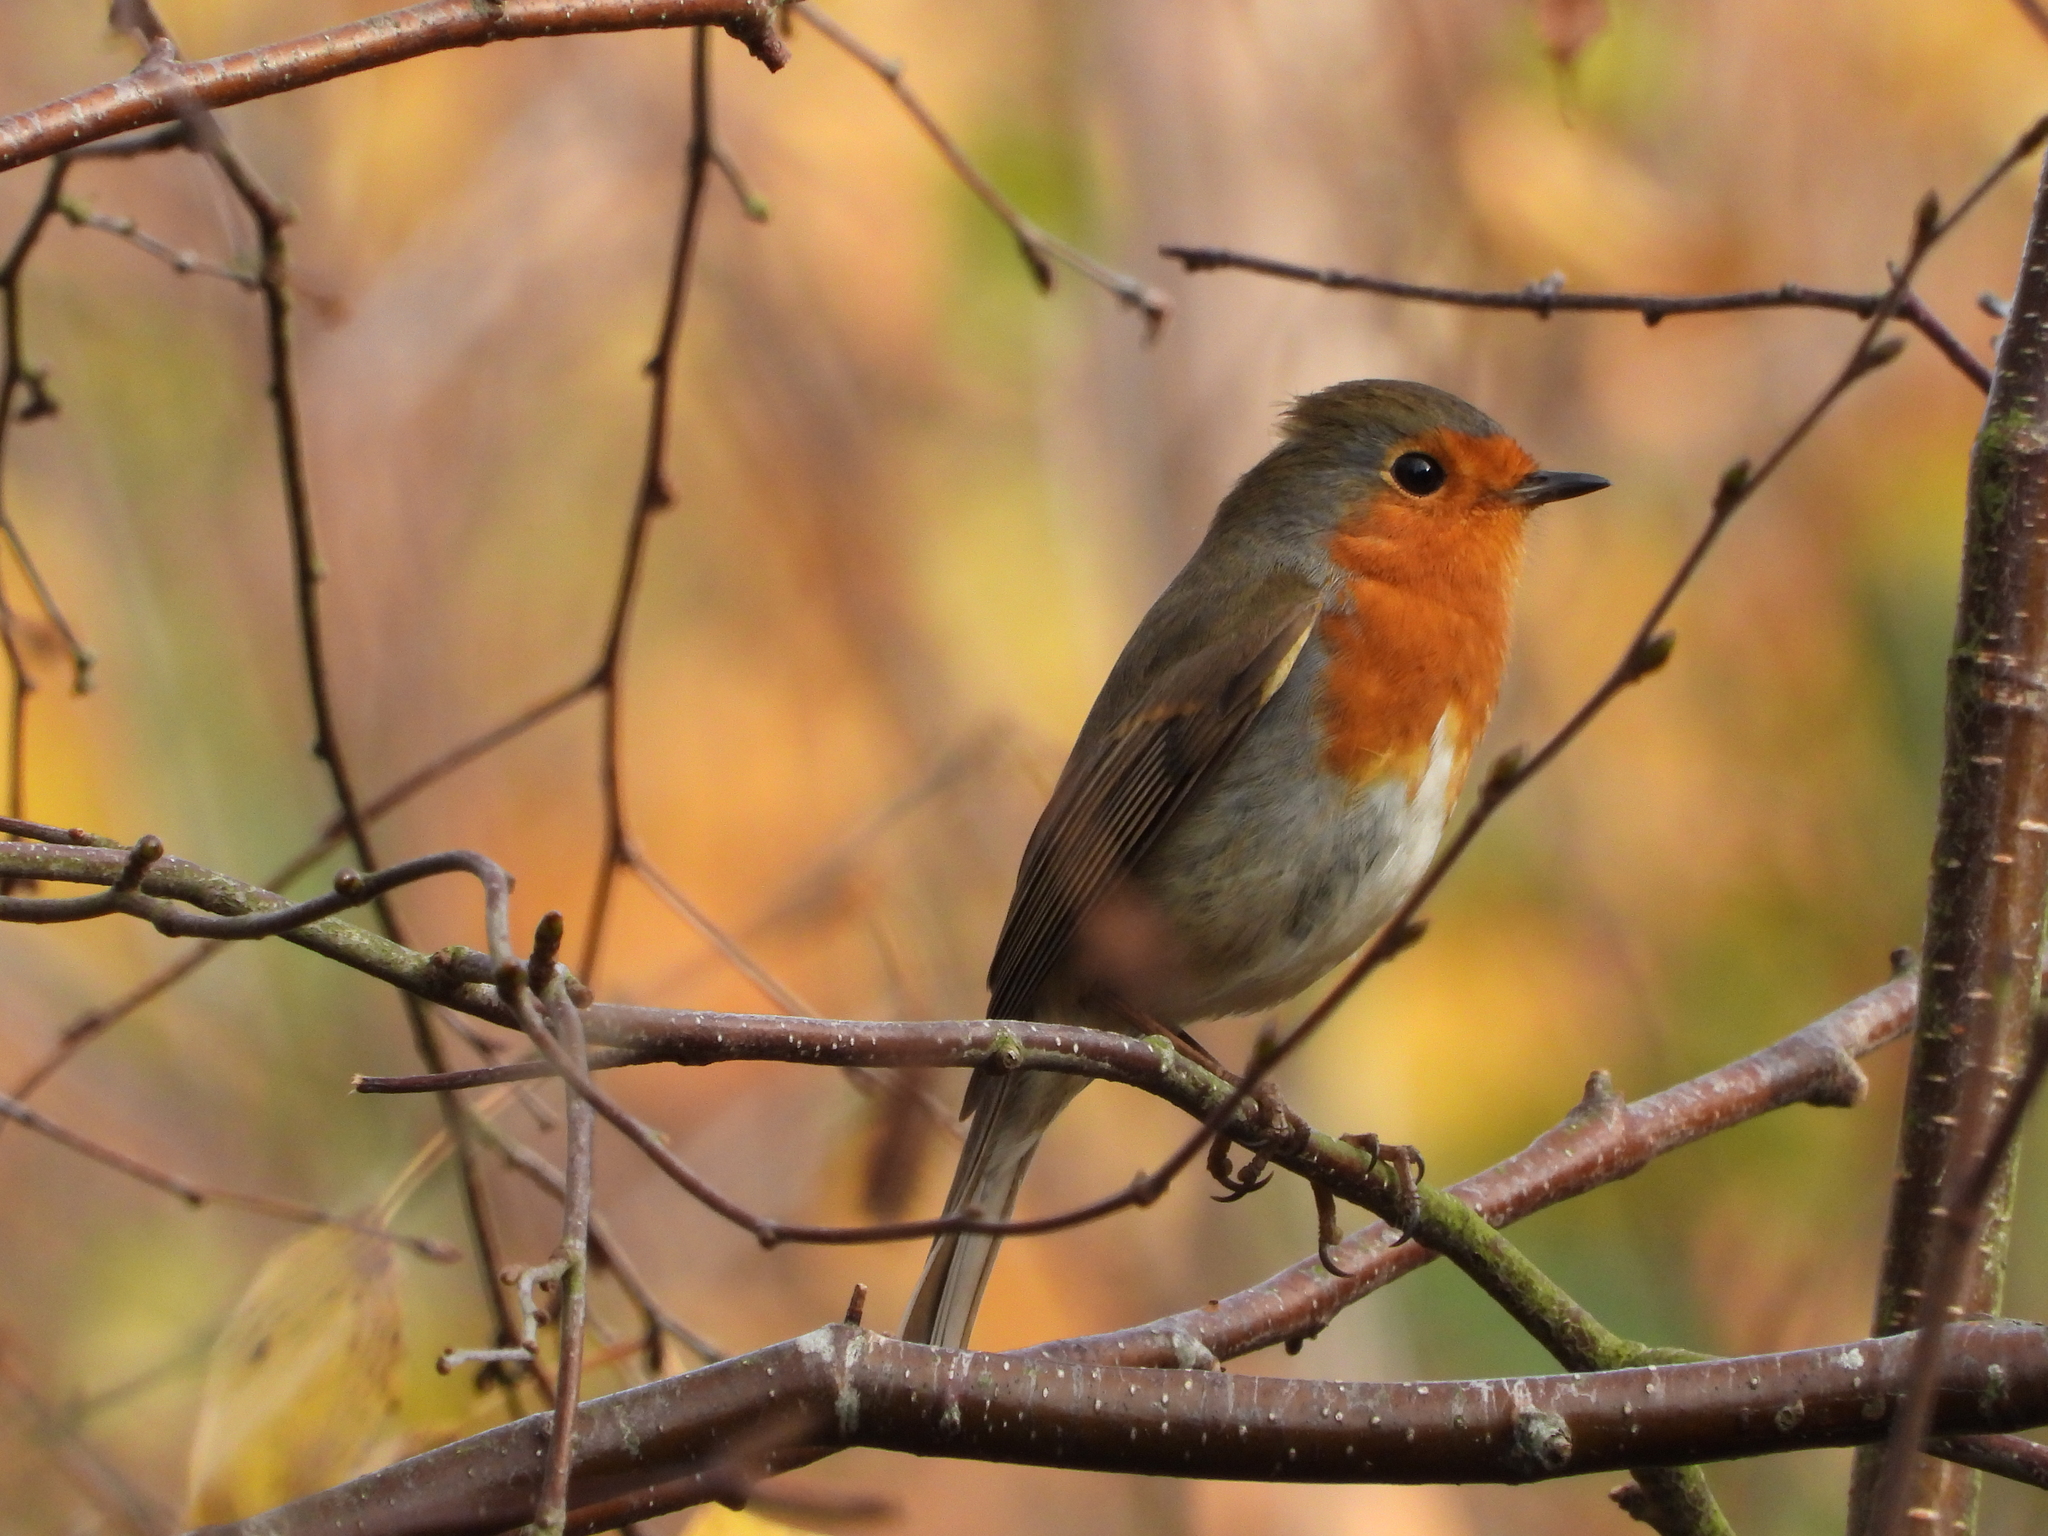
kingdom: Animalia
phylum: Chordata
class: Aves
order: Passeriformes
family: Muscicapidae
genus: Erithacus
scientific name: Erithacus rubecula
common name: European robin
